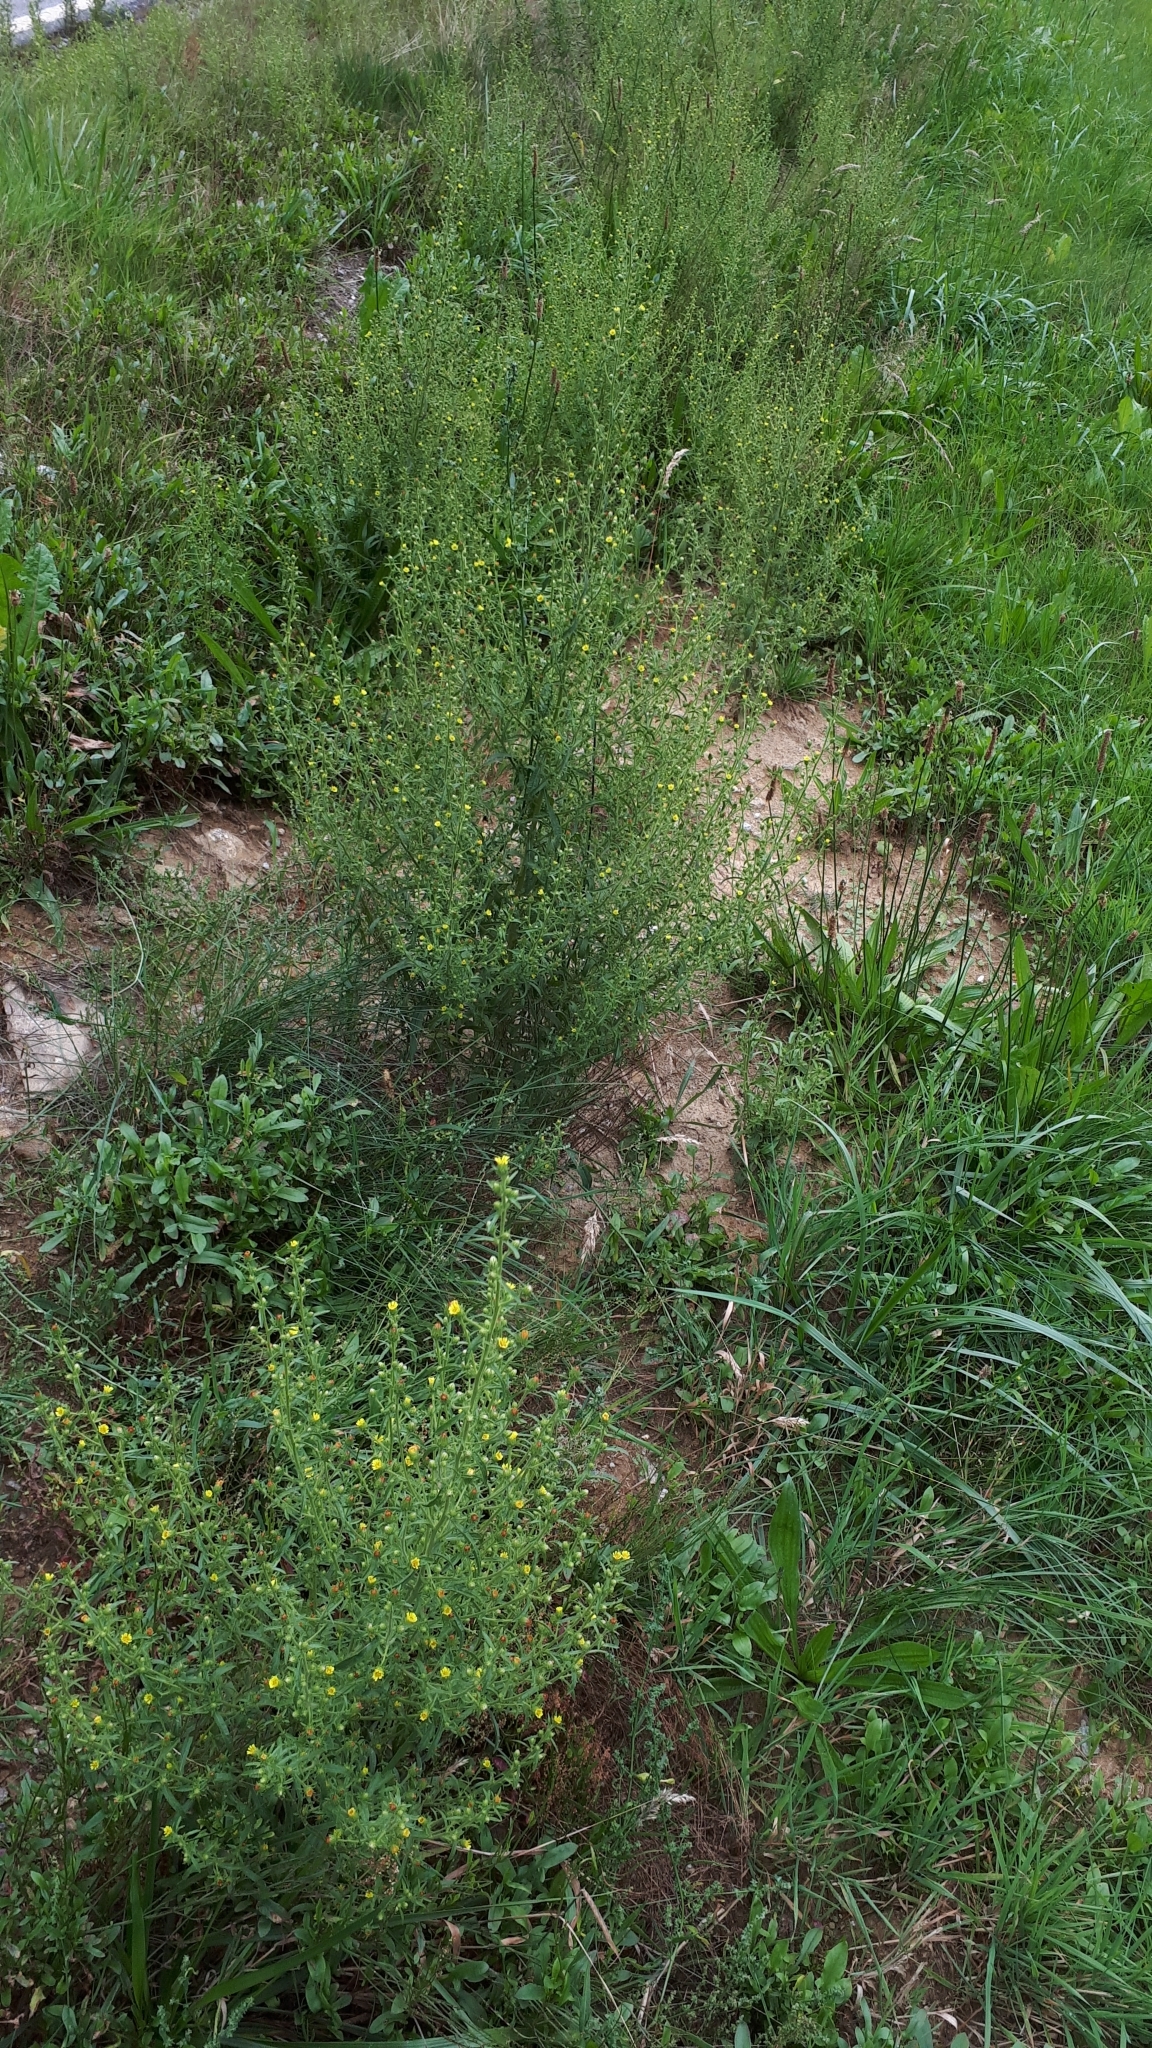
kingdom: Plantae
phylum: Tracheophyta
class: Magnoliopsida
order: Asterales
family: Asteraceae
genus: Dittrichia
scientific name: Dittrichia graveolens
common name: Stinking fleabane
